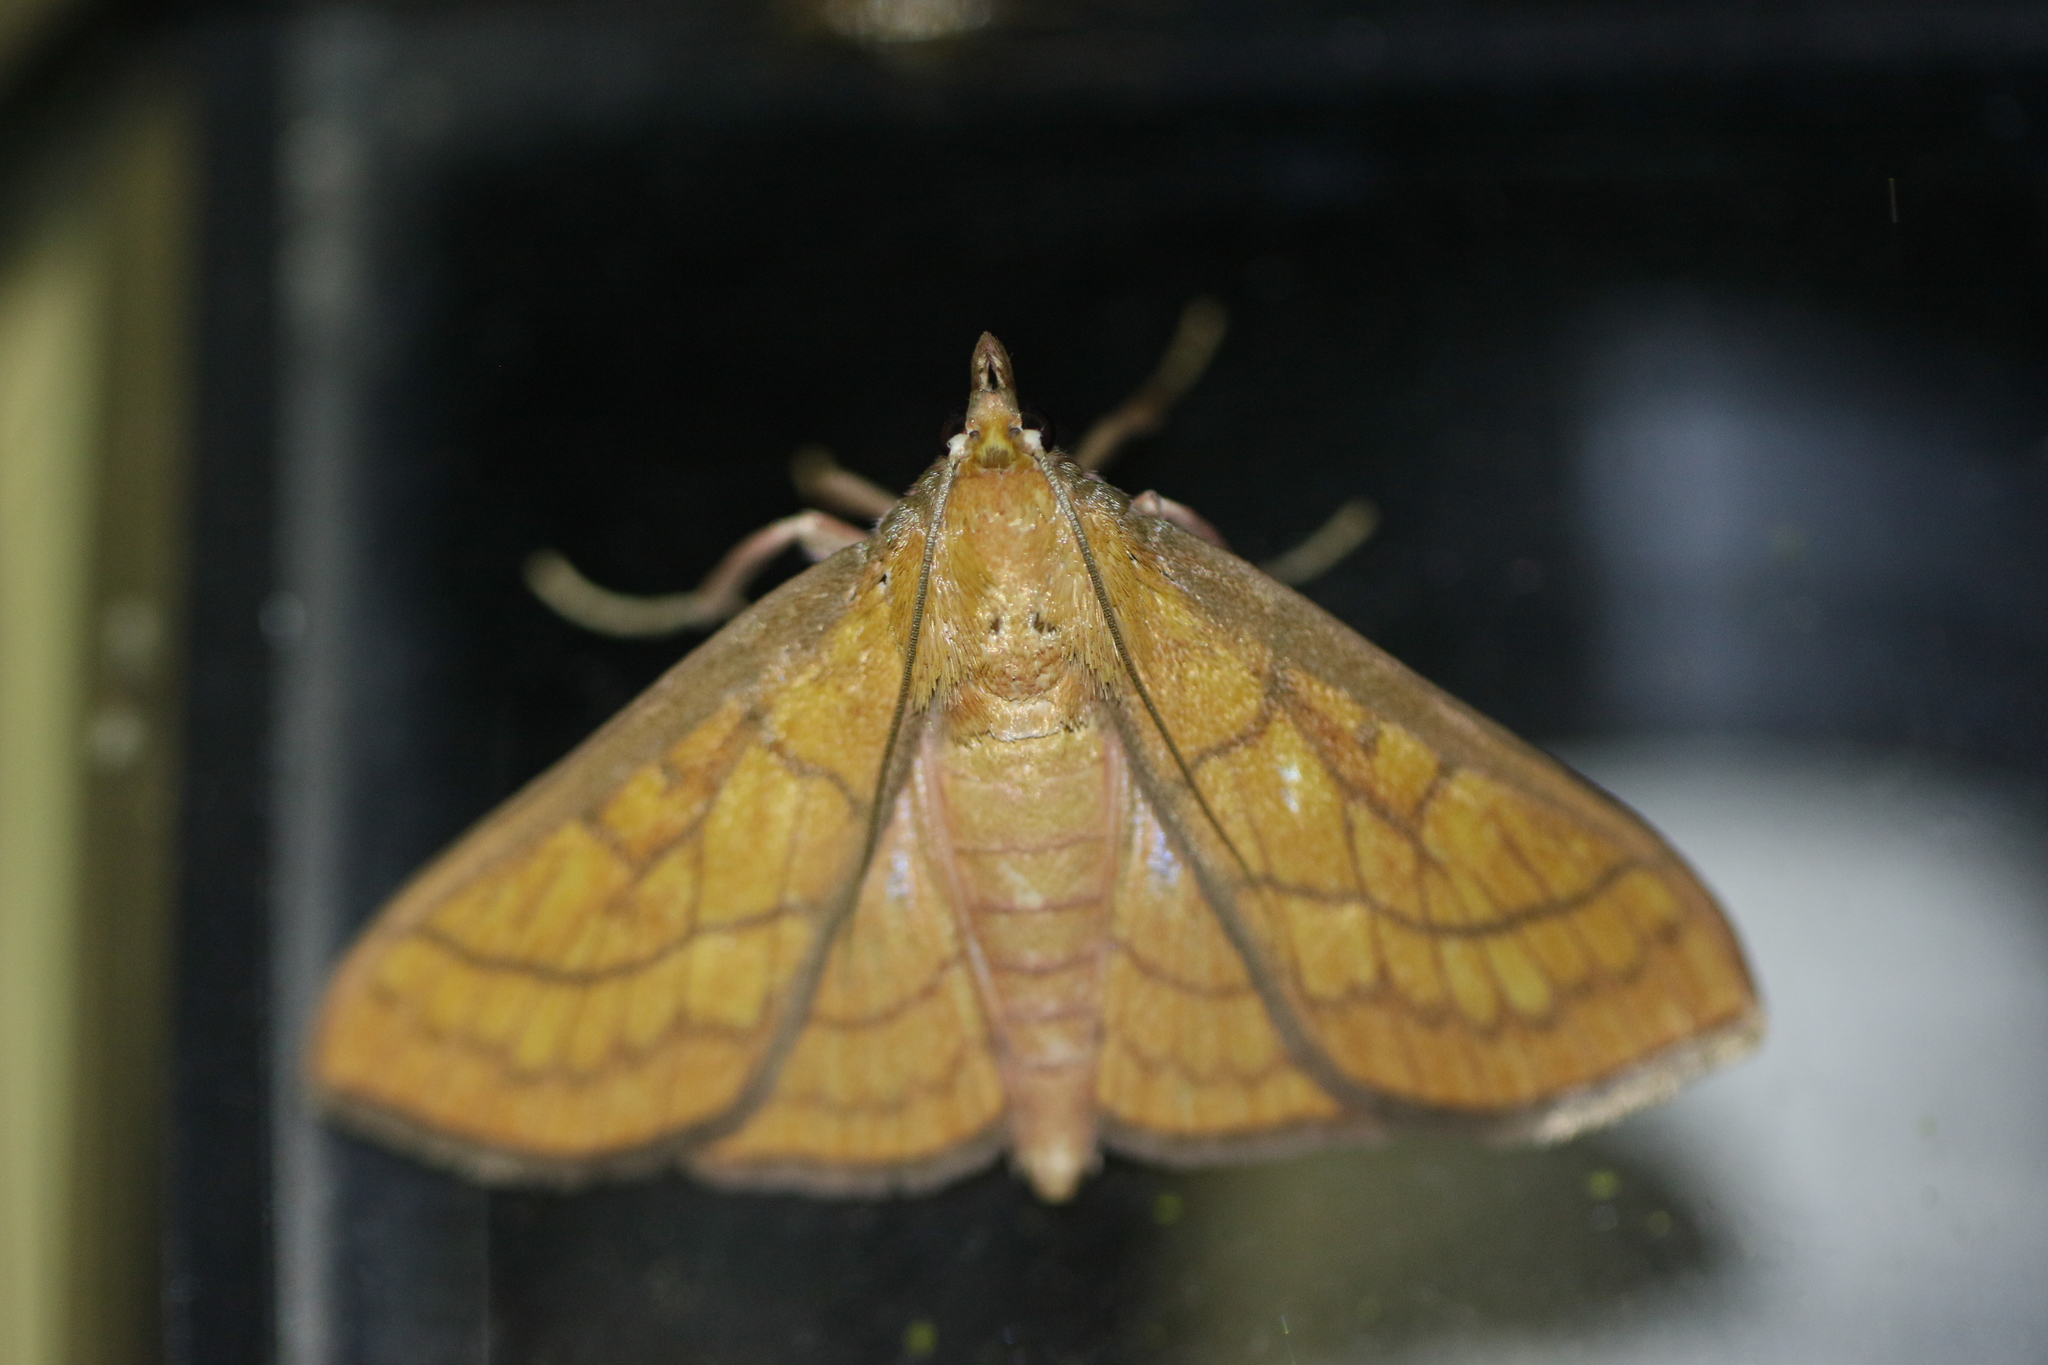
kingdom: Animalia
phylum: Arthropoda
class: Insecta
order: Lepidoptera
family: Crambidae
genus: Polygrammodes
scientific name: Polygrammodes hercules
